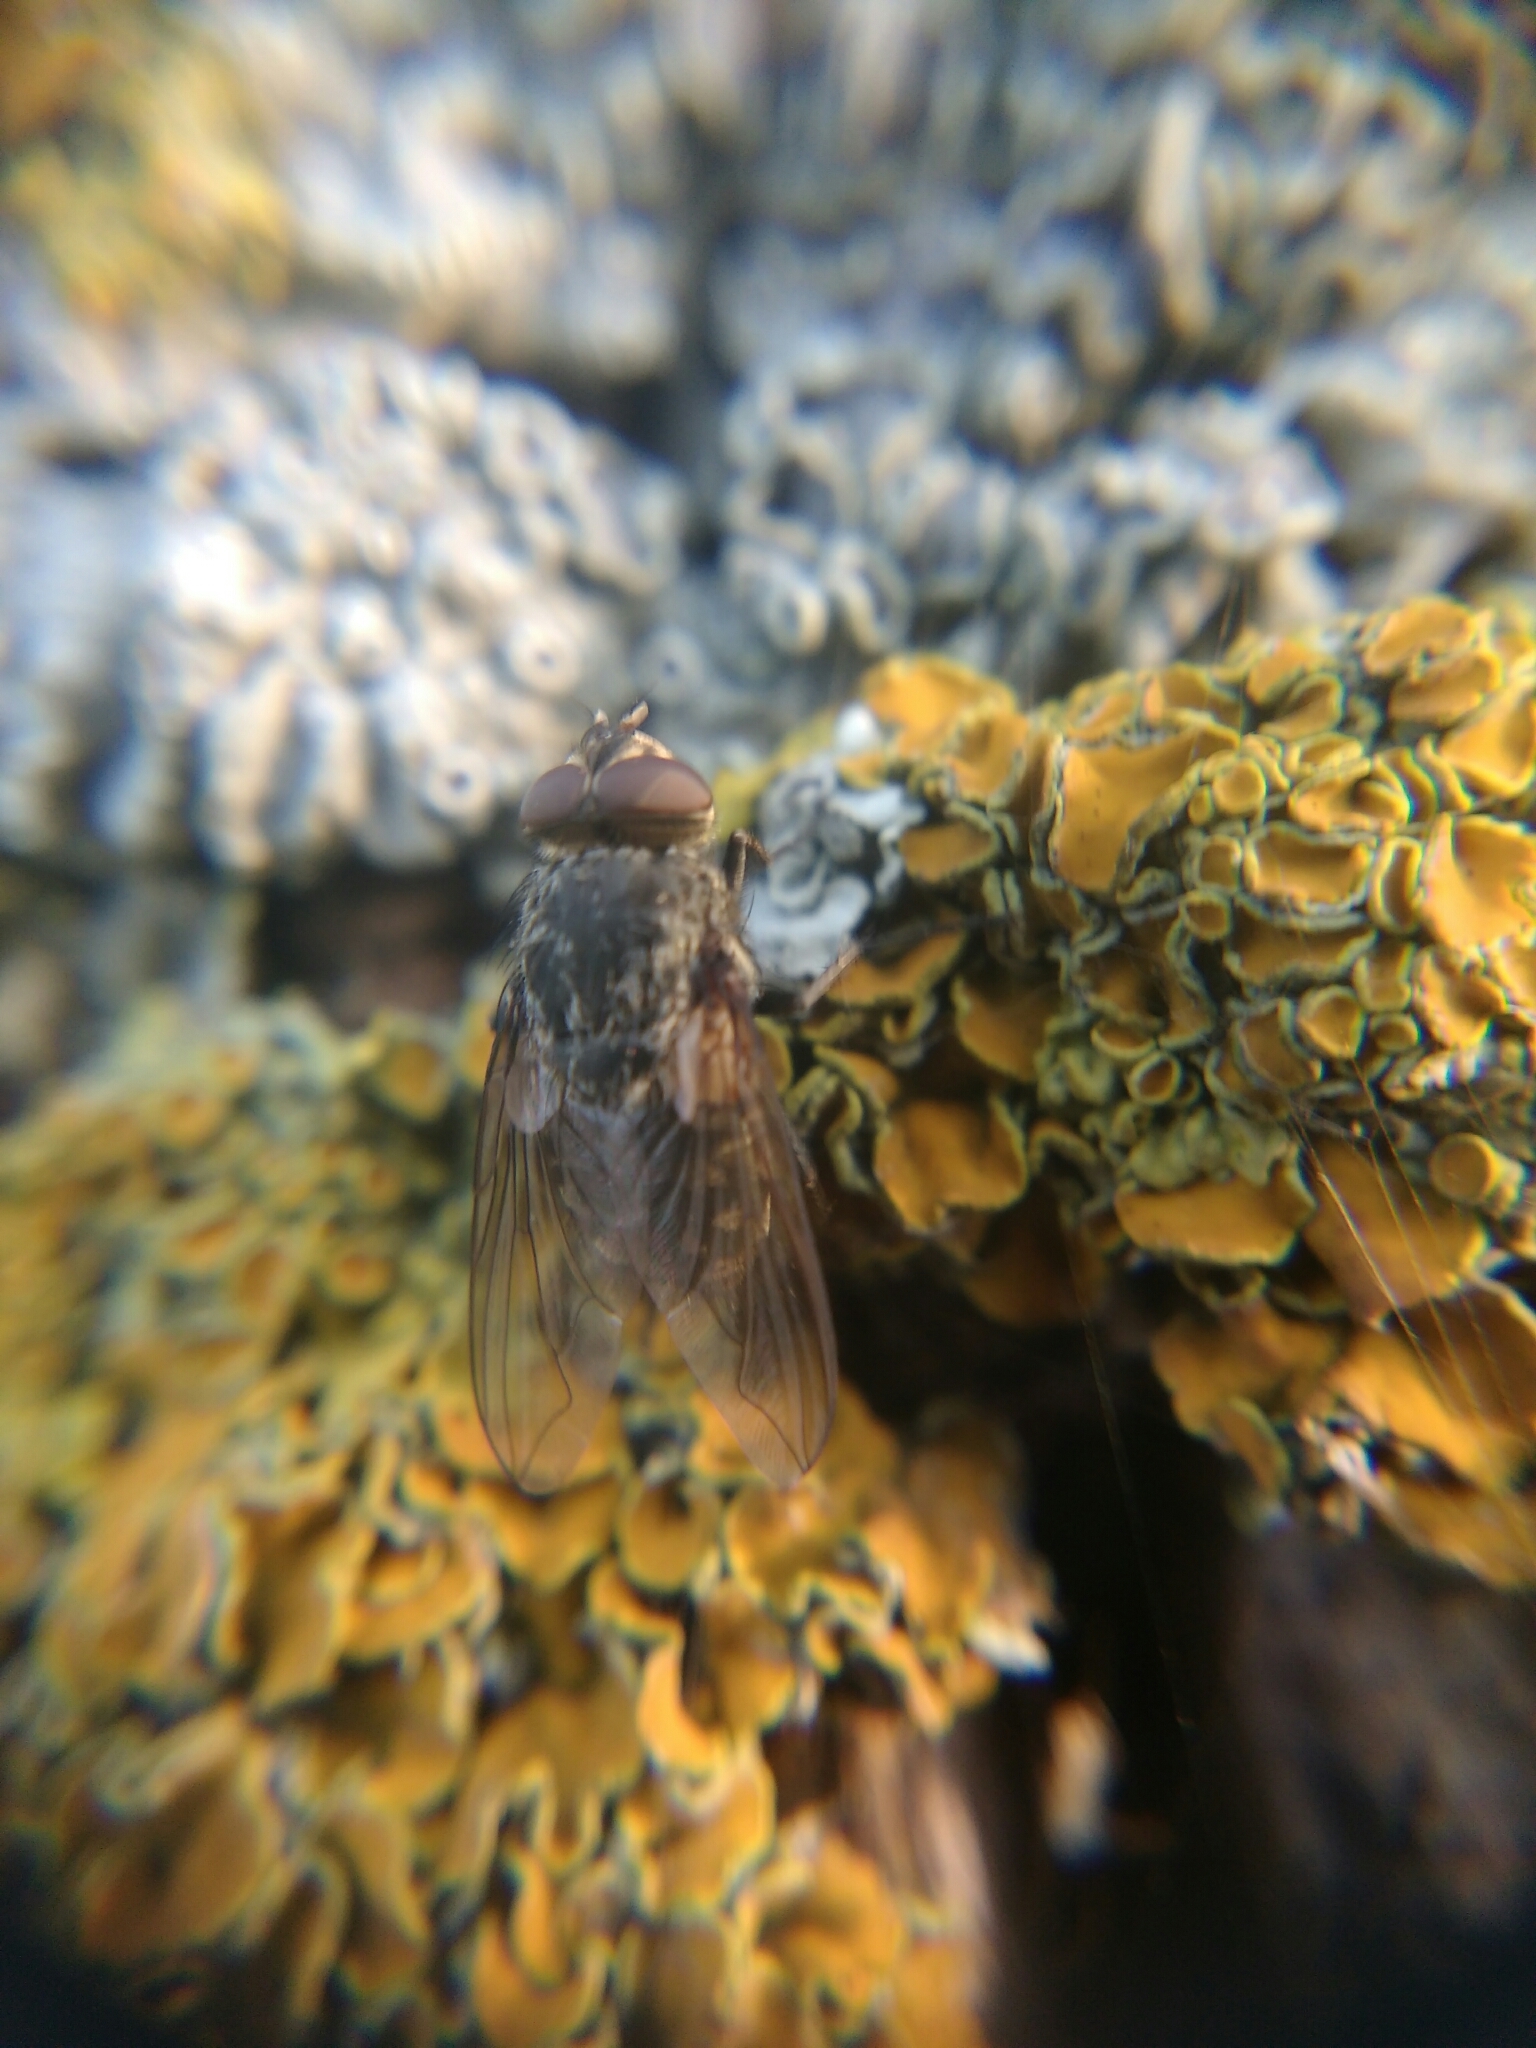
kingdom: Animalia
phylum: Arthropoda
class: Insecta
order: Diptera
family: Polleniidae
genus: Pollenia
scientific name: Pollenia
